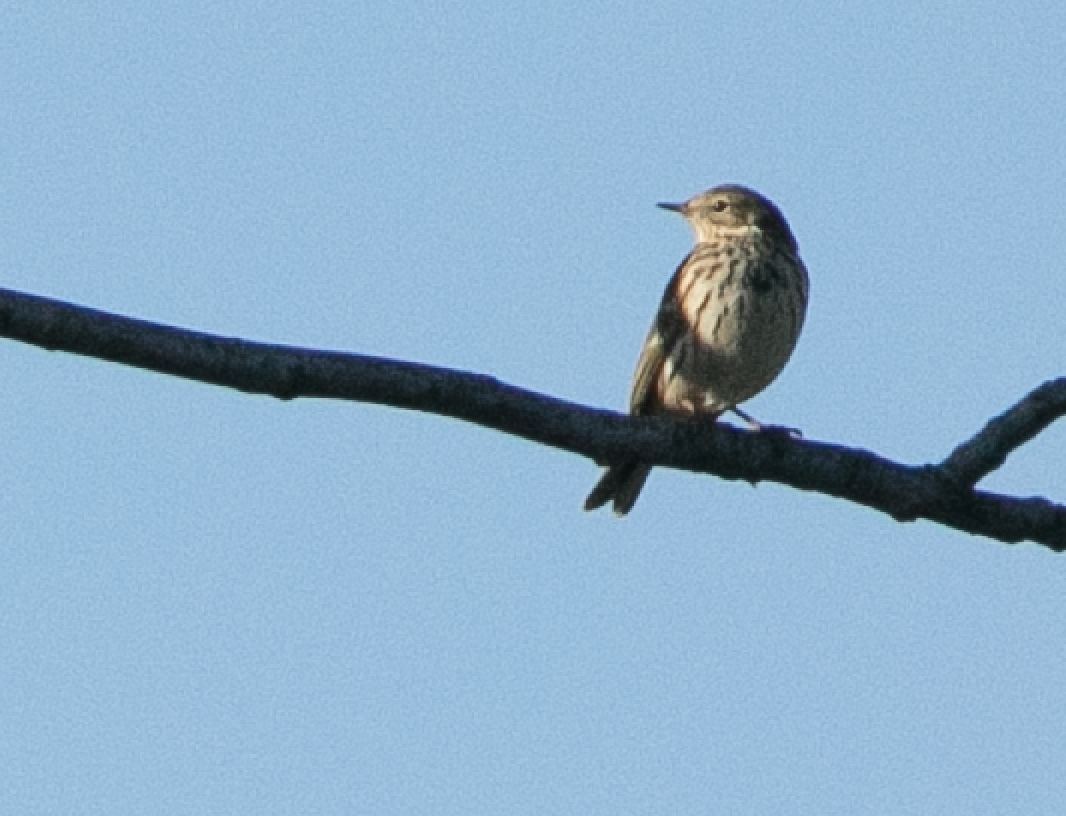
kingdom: Animalia
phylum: Chordata
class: Aves
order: Passeriformes
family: Motacillidae
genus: Anthus
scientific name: Anthus pratensis
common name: Meadow pipit
